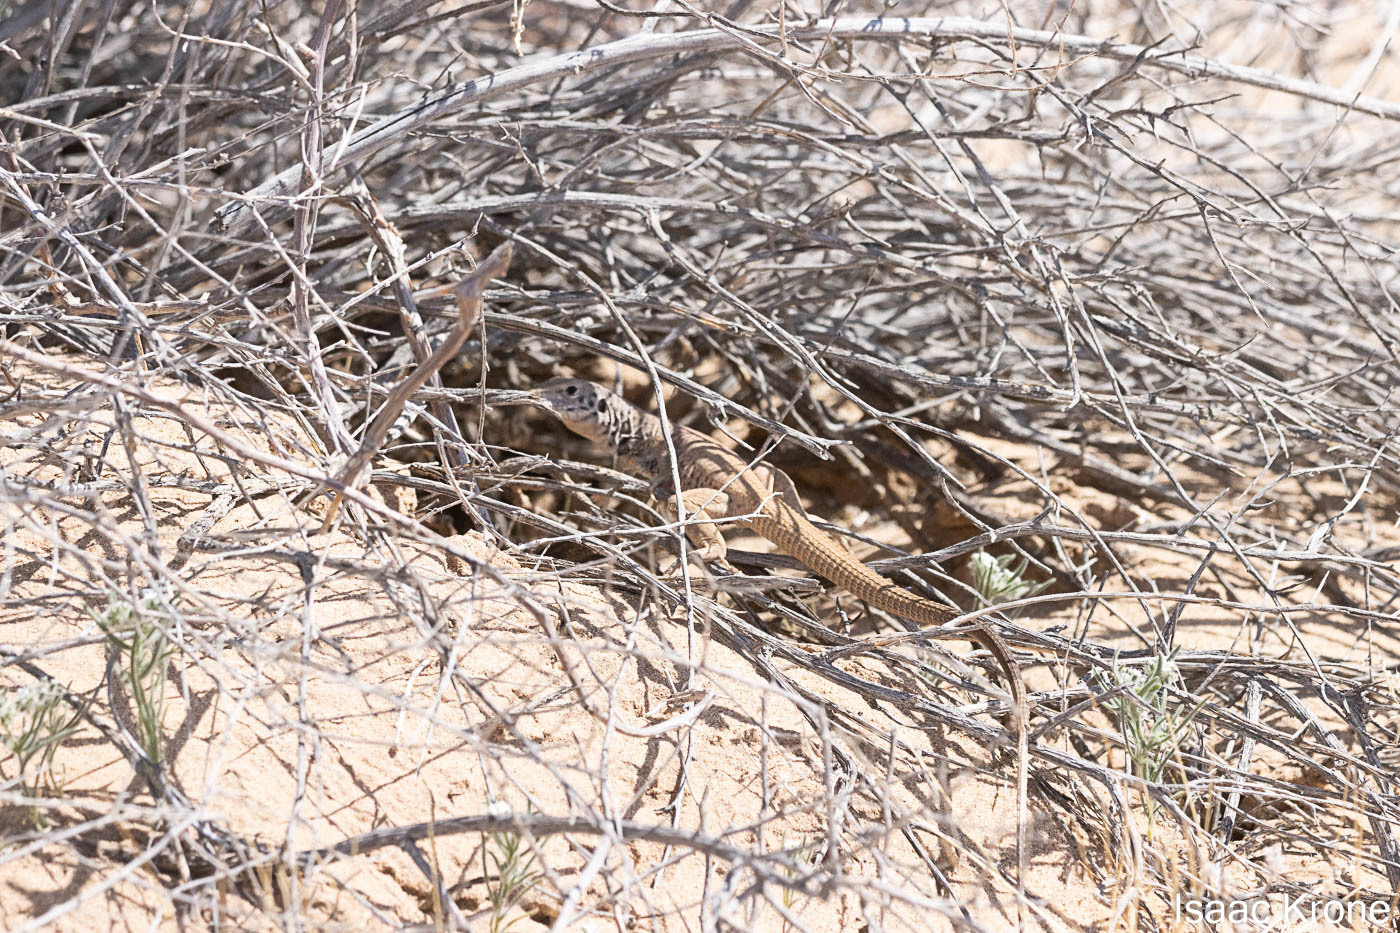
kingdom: Animalia
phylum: Chordata
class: Squamata
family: Teiidae
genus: Aspidoscelis
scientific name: Aspidoscelis tigris
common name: Tiger whiptail
